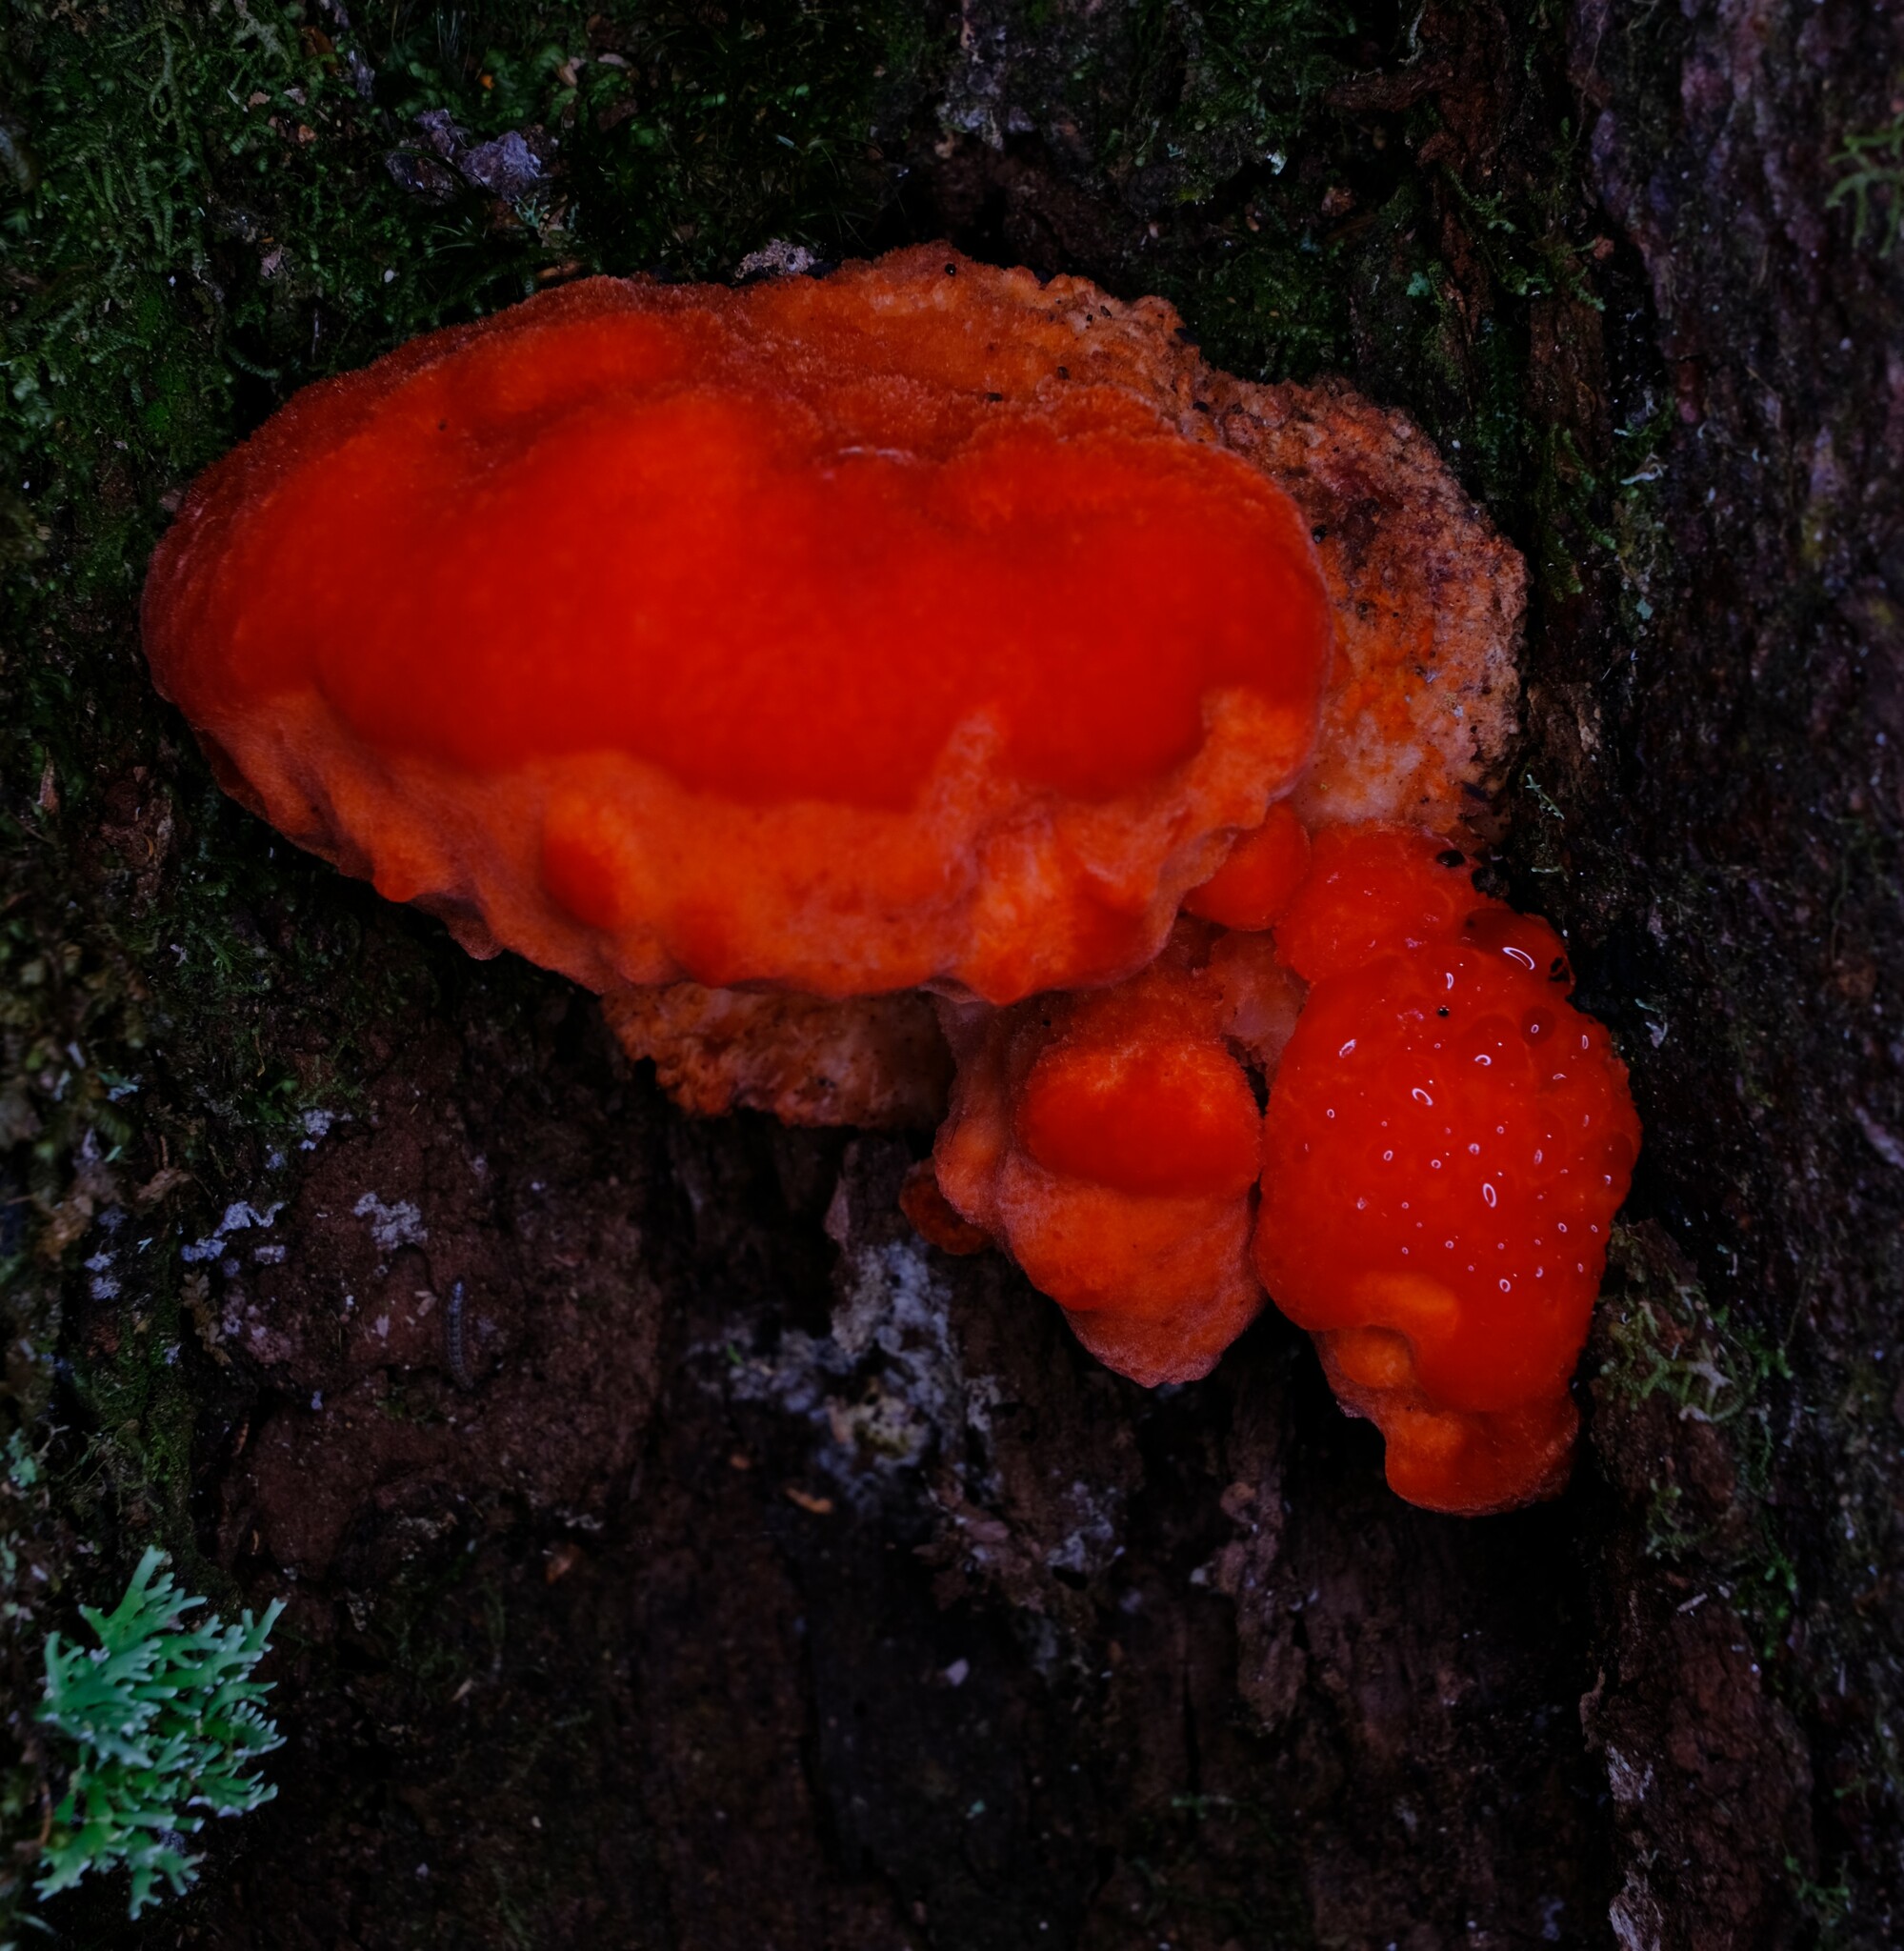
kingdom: Fungi
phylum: Basidiomycota
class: Agaricomycetes
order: Polyporales
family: Incrustoporiaceae
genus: Tyromyces
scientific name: Tyromyces pulcherrimus
